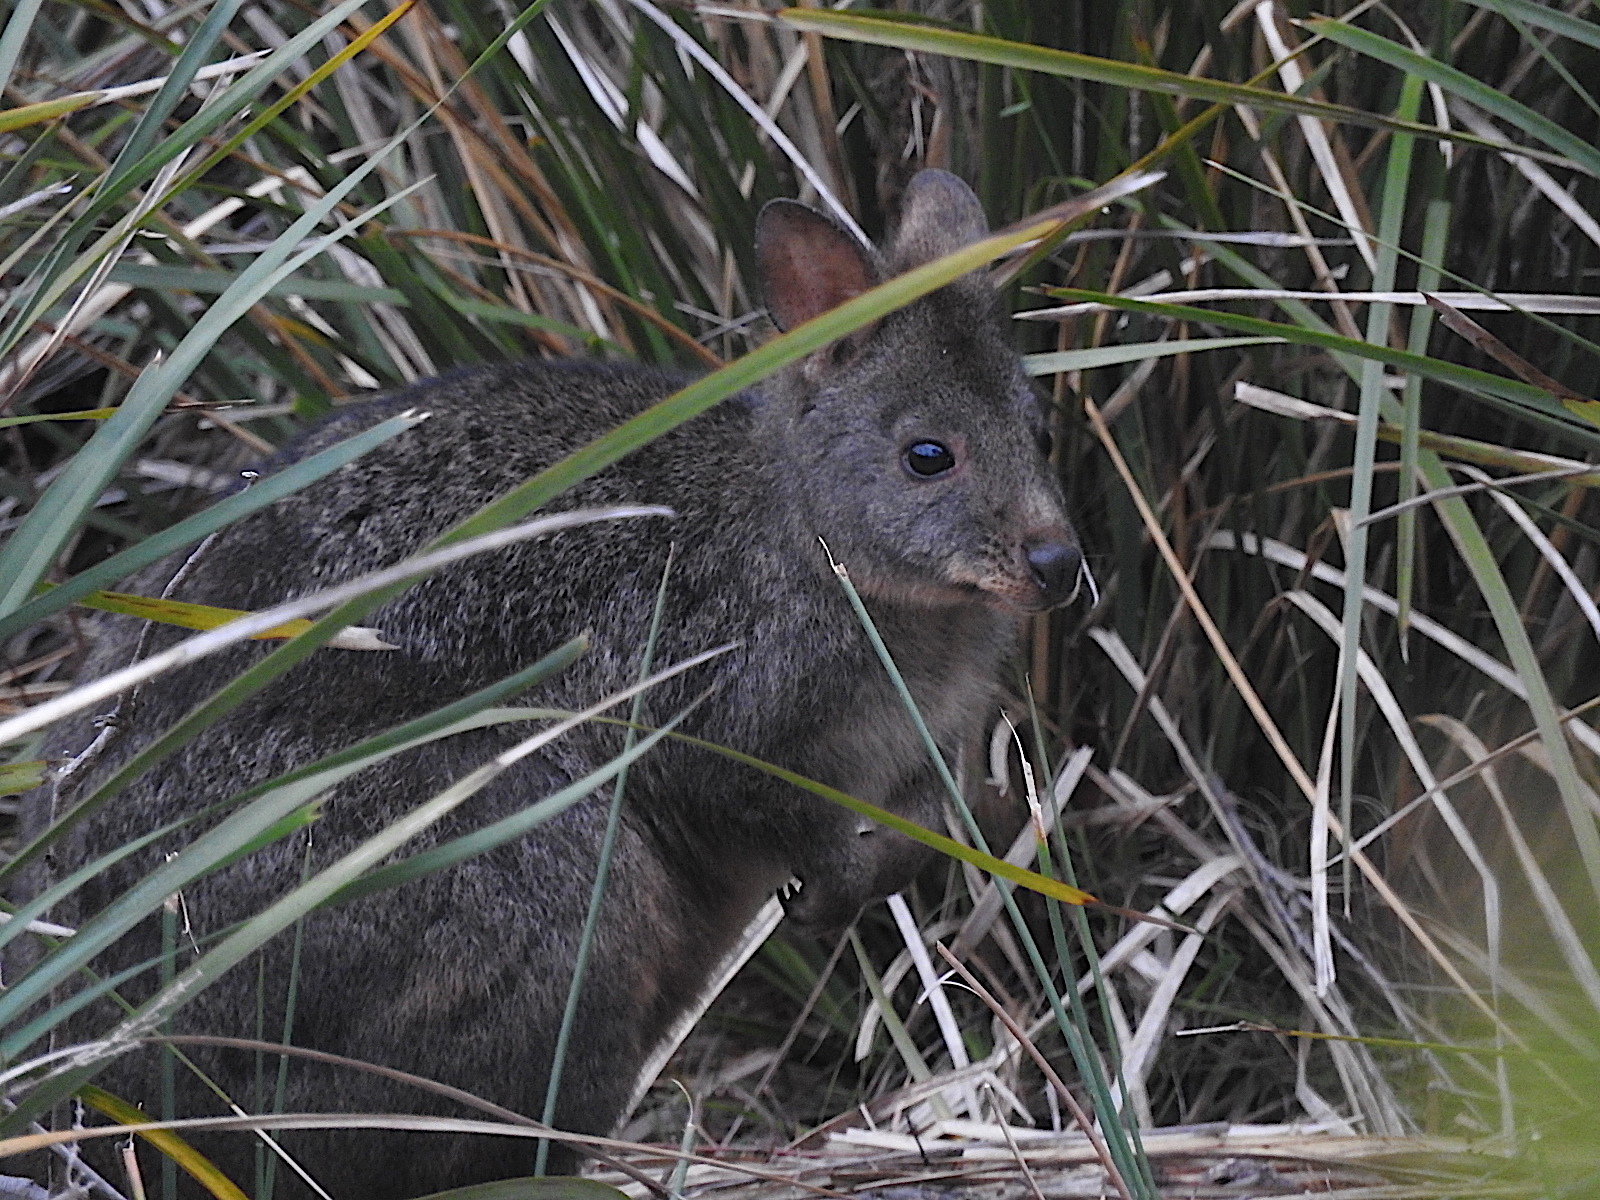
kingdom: Animalia
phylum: Chordata
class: Mammalia
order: Diprotodontia
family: Macropodidae
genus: Thylogale
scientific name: Thylogale billardierii
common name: Tasmanian pademelon
